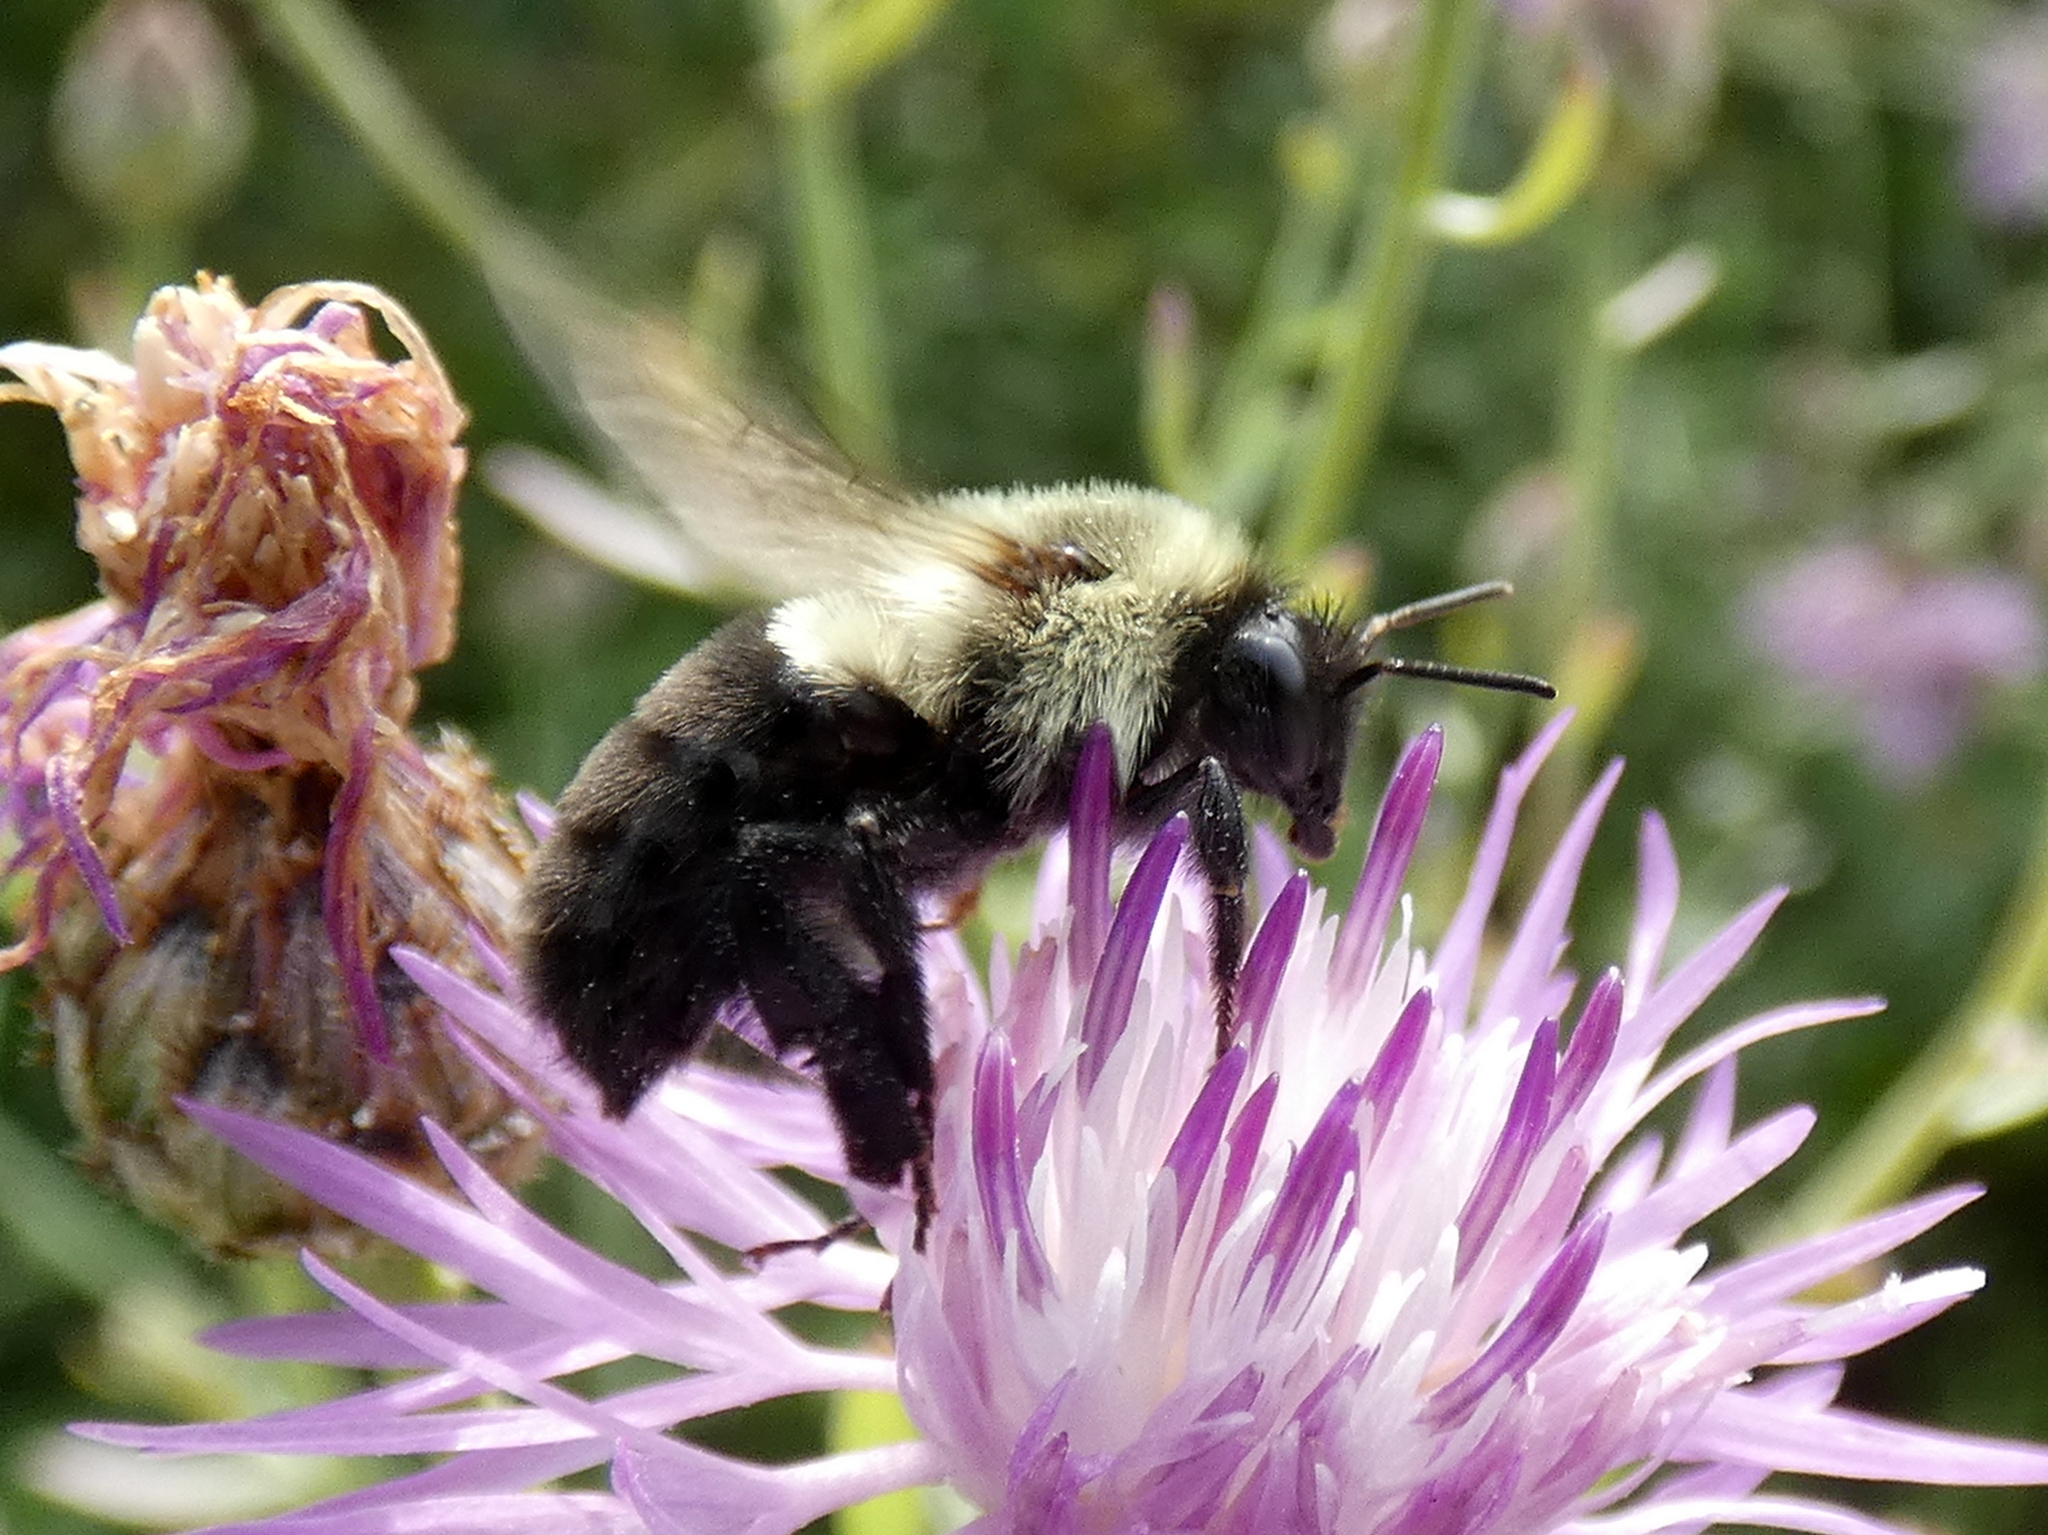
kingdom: Animalia
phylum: Arthropoda
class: Insecta
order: Hymenoptera
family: Apidae
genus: Bombus
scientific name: Bombus impatiens
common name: Common eastern bumble bee
